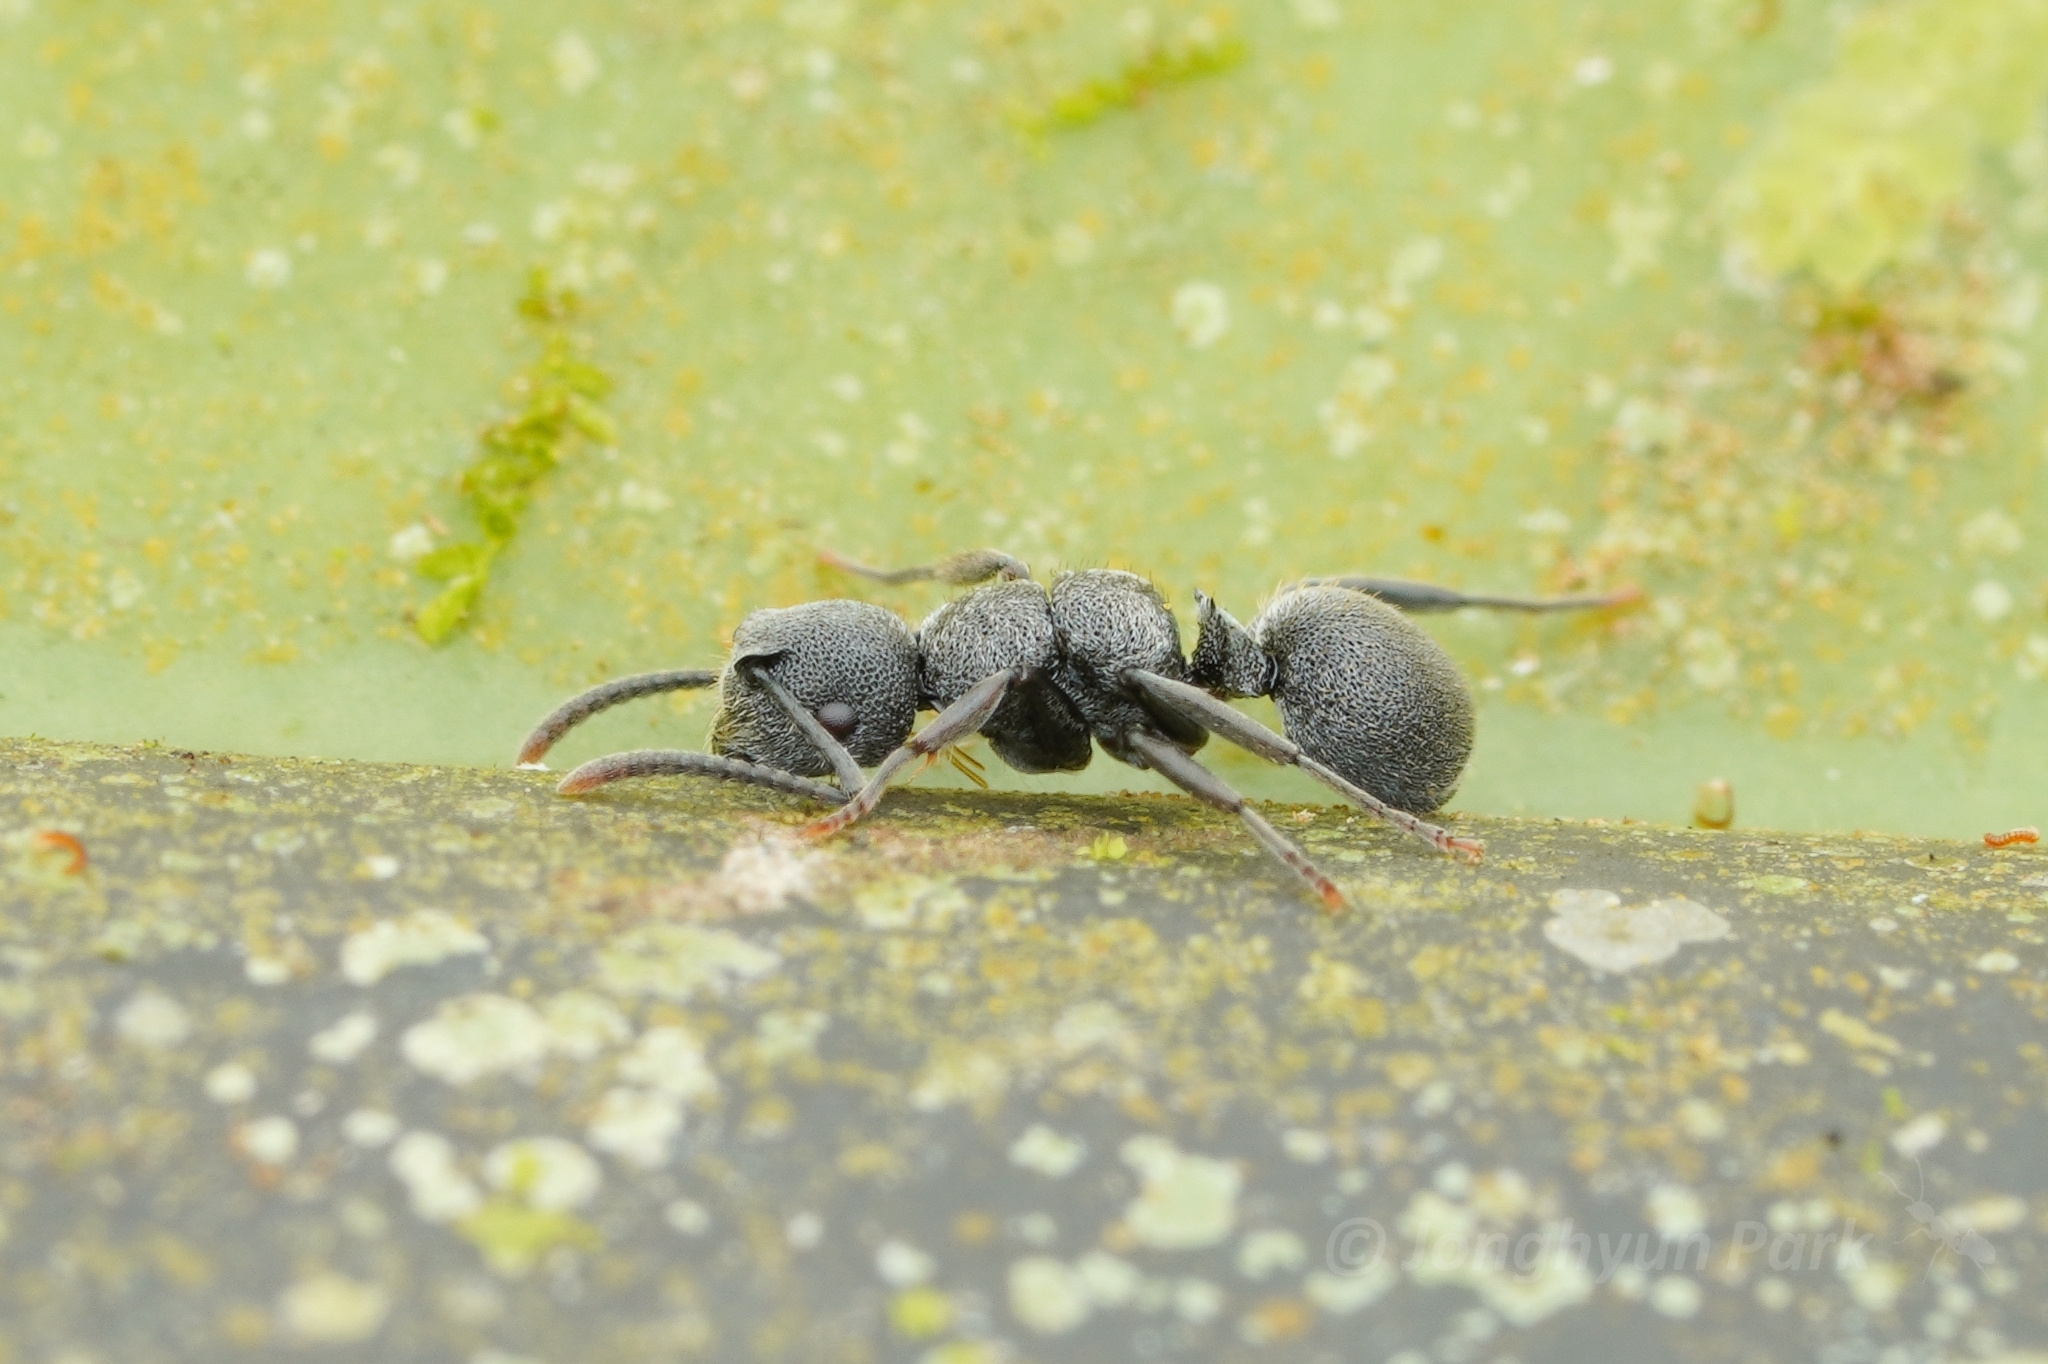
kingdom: Animalia
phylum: Arthropoda
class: Insecta
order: Hymenoptera
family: Formicidae
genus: Echinopla
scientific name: Echinopla rugosa
